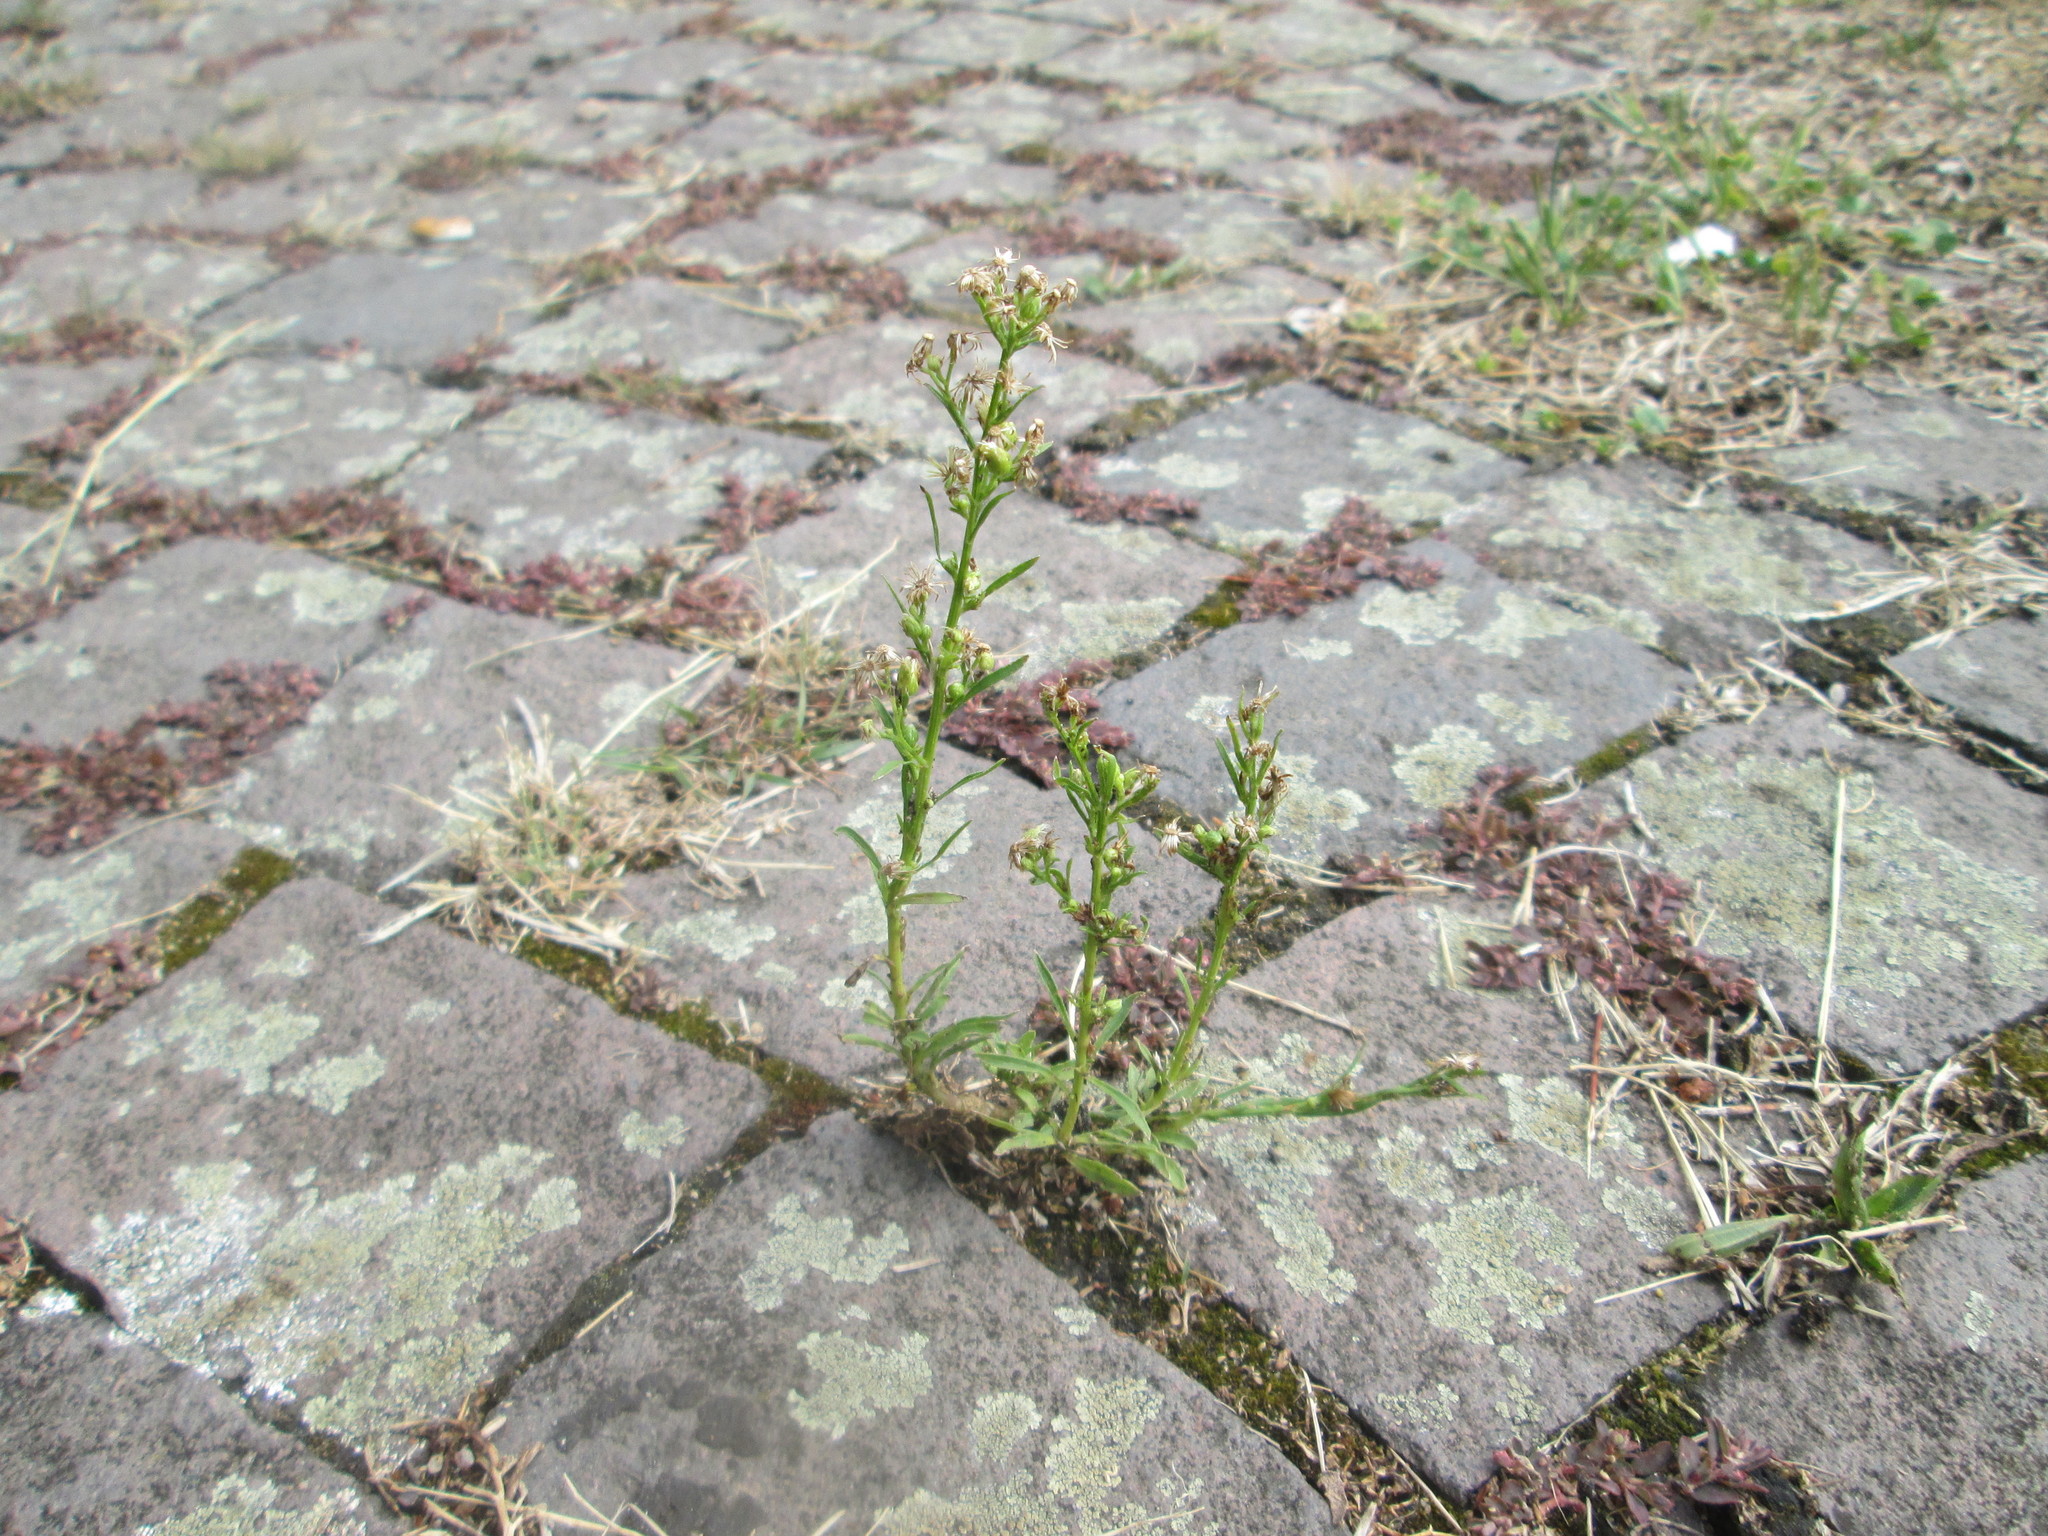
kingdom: Plantae
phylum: Tracheophyta
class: Magnoliopsida
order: Asterales
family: Asteraceae
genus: Erigeron
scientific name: Erigeron canadensis
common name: Canadian fleabane
